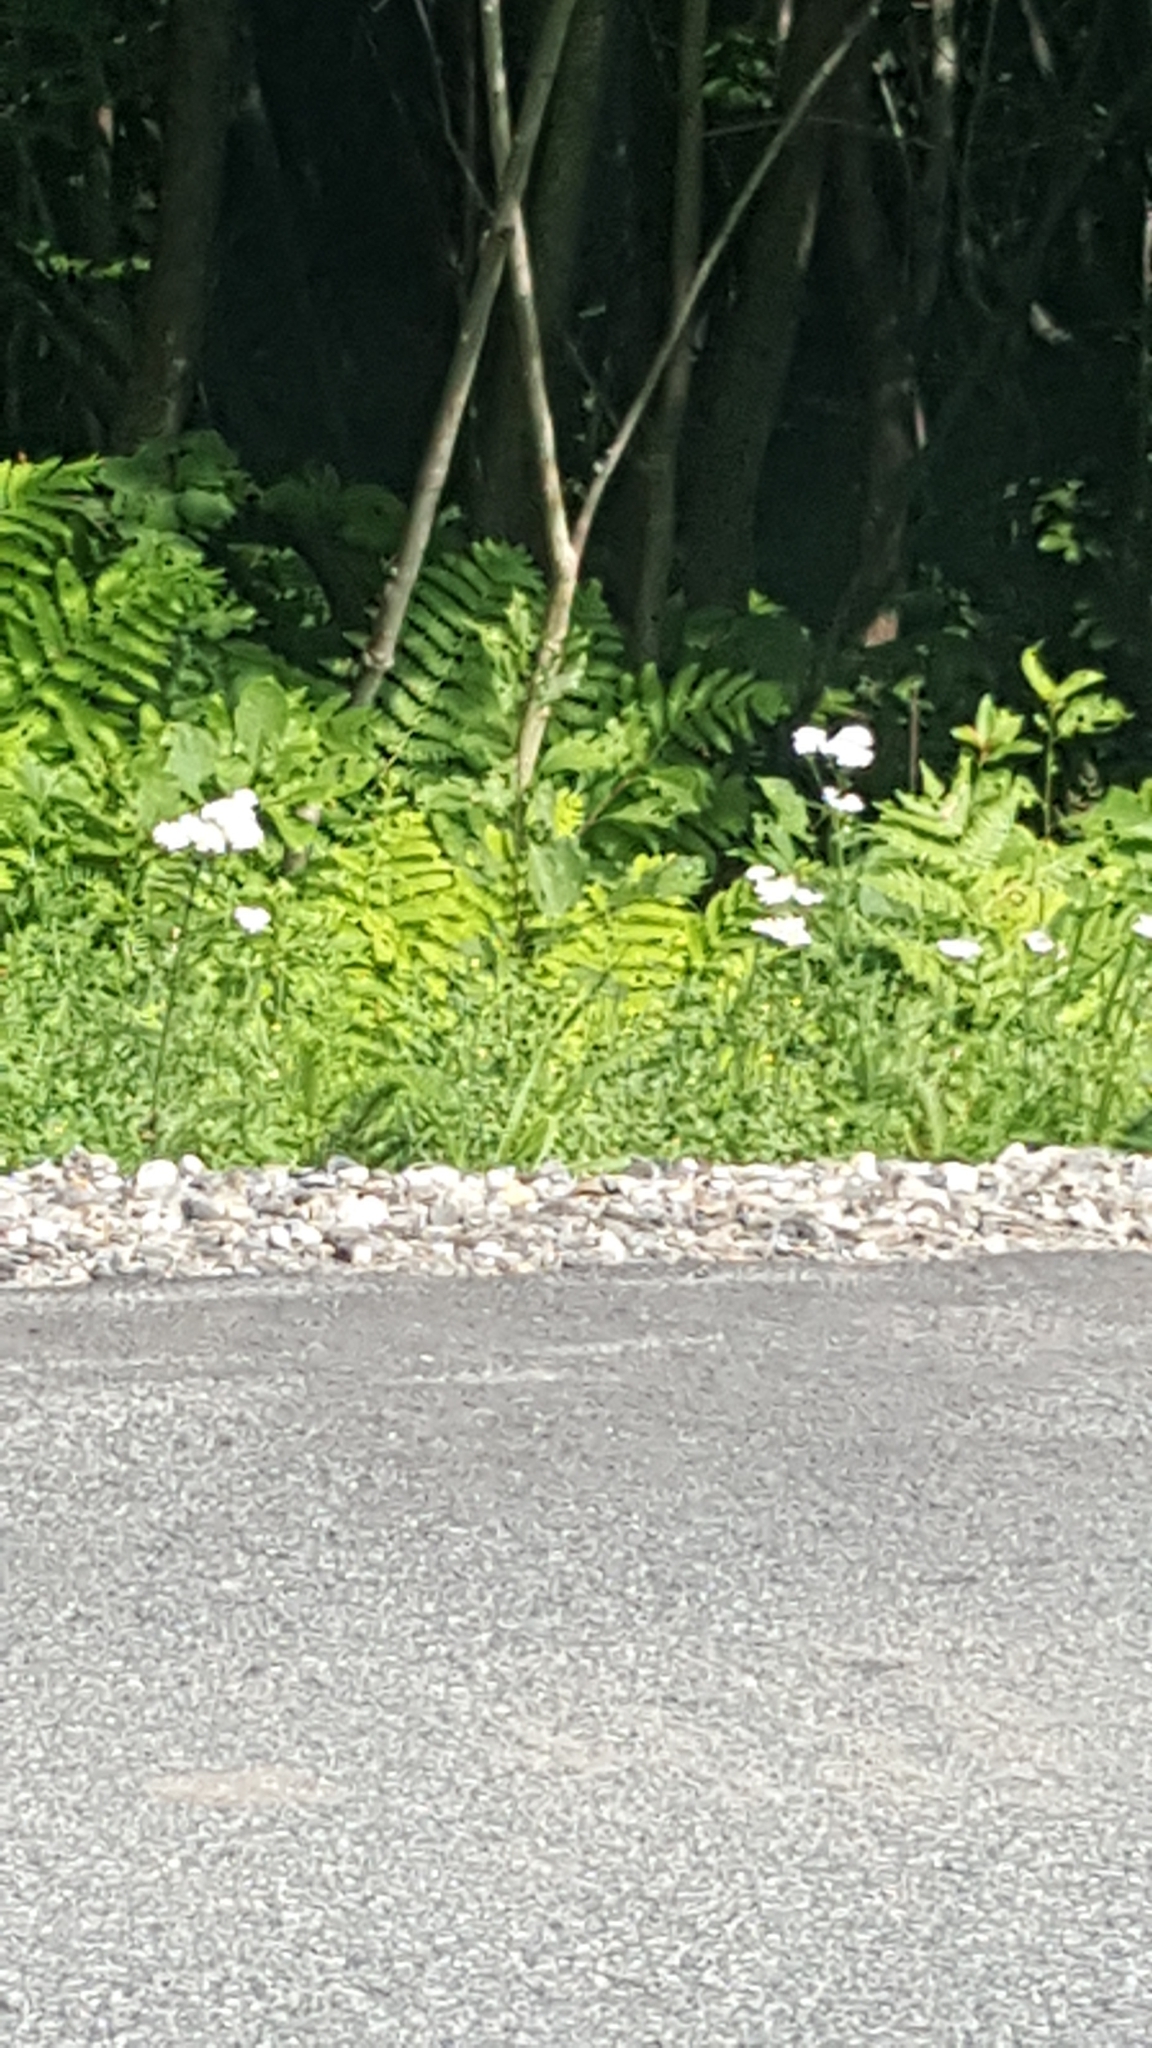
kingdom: Plantae
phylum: Tracheophyta
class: Magnoliopsida
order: Asterales
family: Asteraceae
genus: Achillea
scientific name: Achillea millefolium
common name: Yarrow
